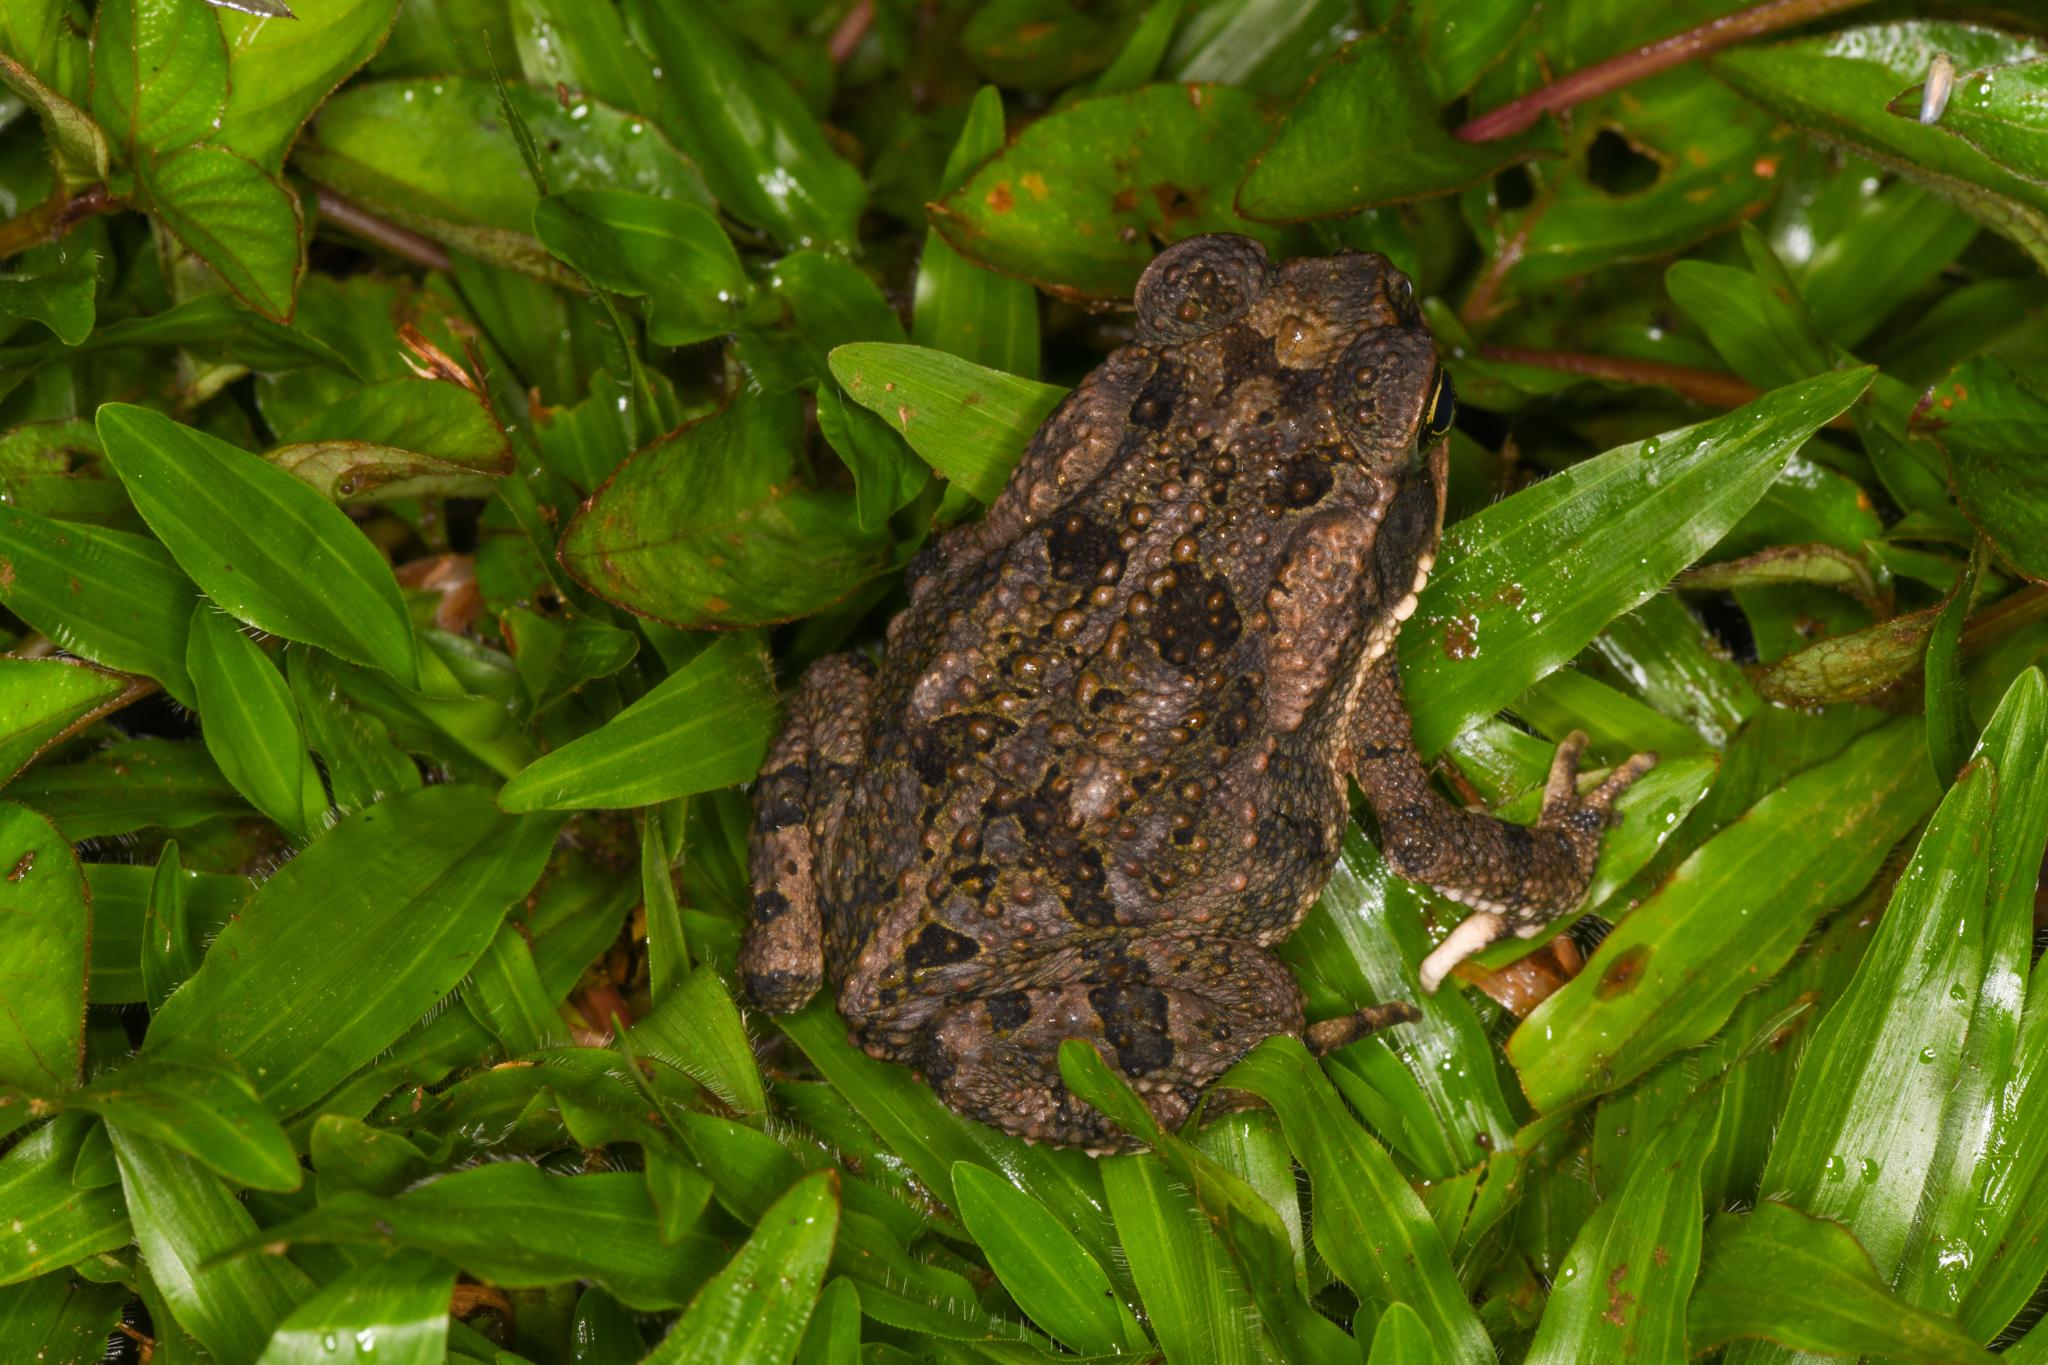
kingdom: Animalia
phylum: Chordata
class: Amphibia
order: Anura
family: Bufonidae
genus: Rhinella
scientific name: Rhinella horribilis
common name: Mesoamerican cane toad
